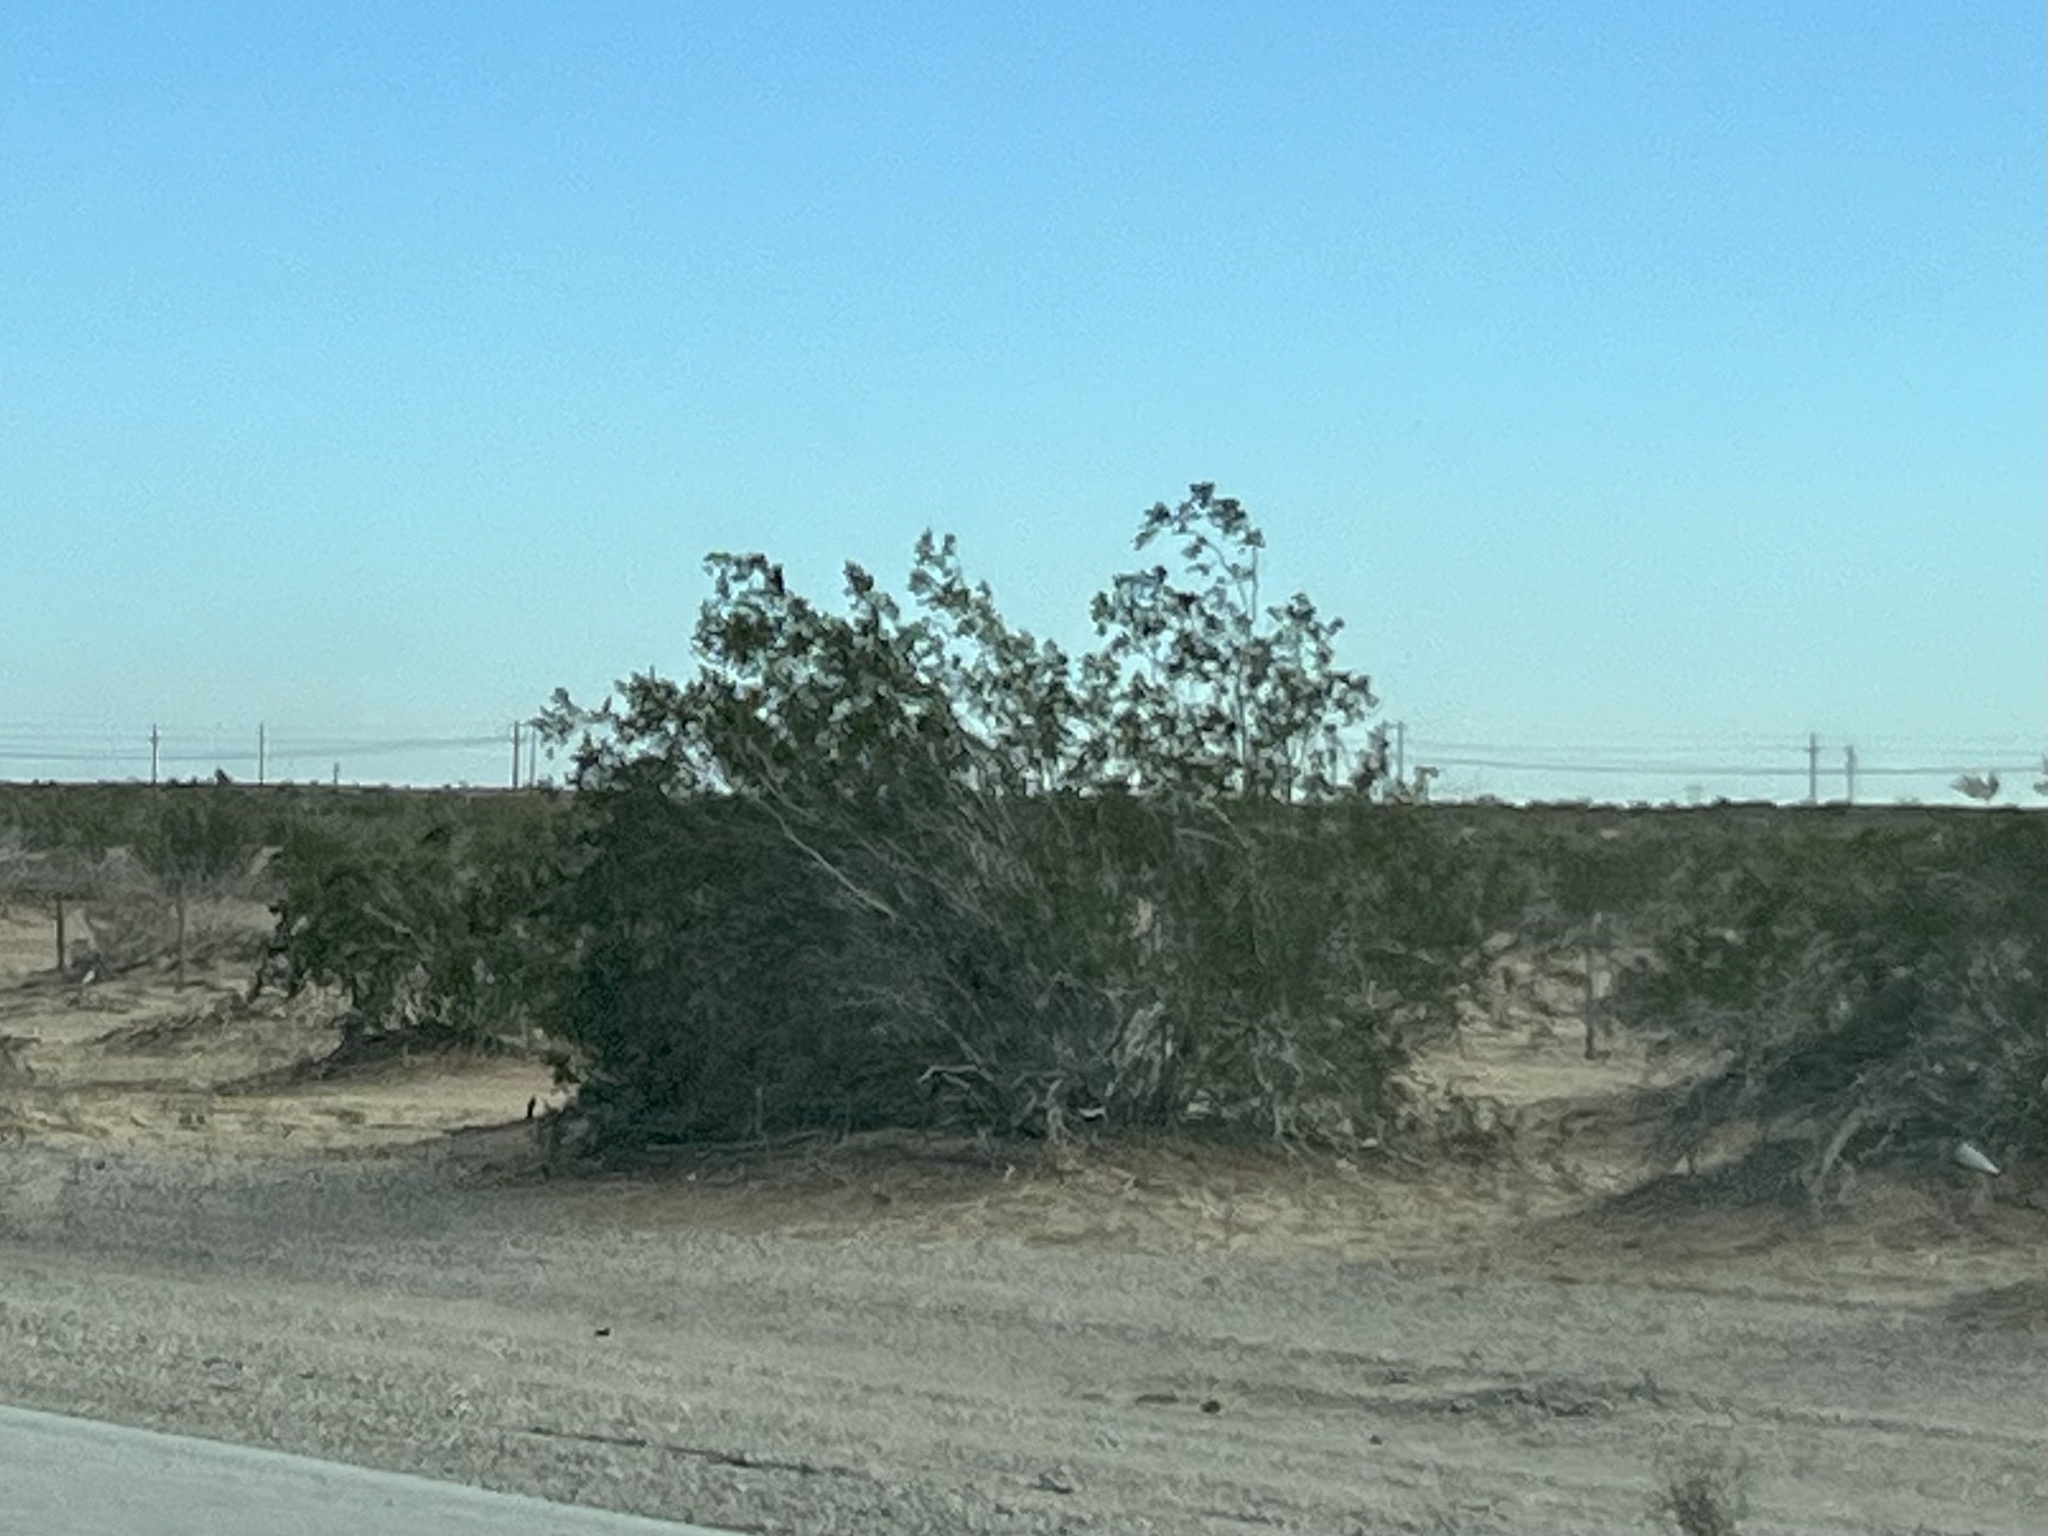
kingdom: Plantae
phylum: Tracheophyta
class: Magnoliopsida
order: Zygophyllales
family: Zygophyllaceae
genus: Larrea
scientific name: Larrea tridentata
